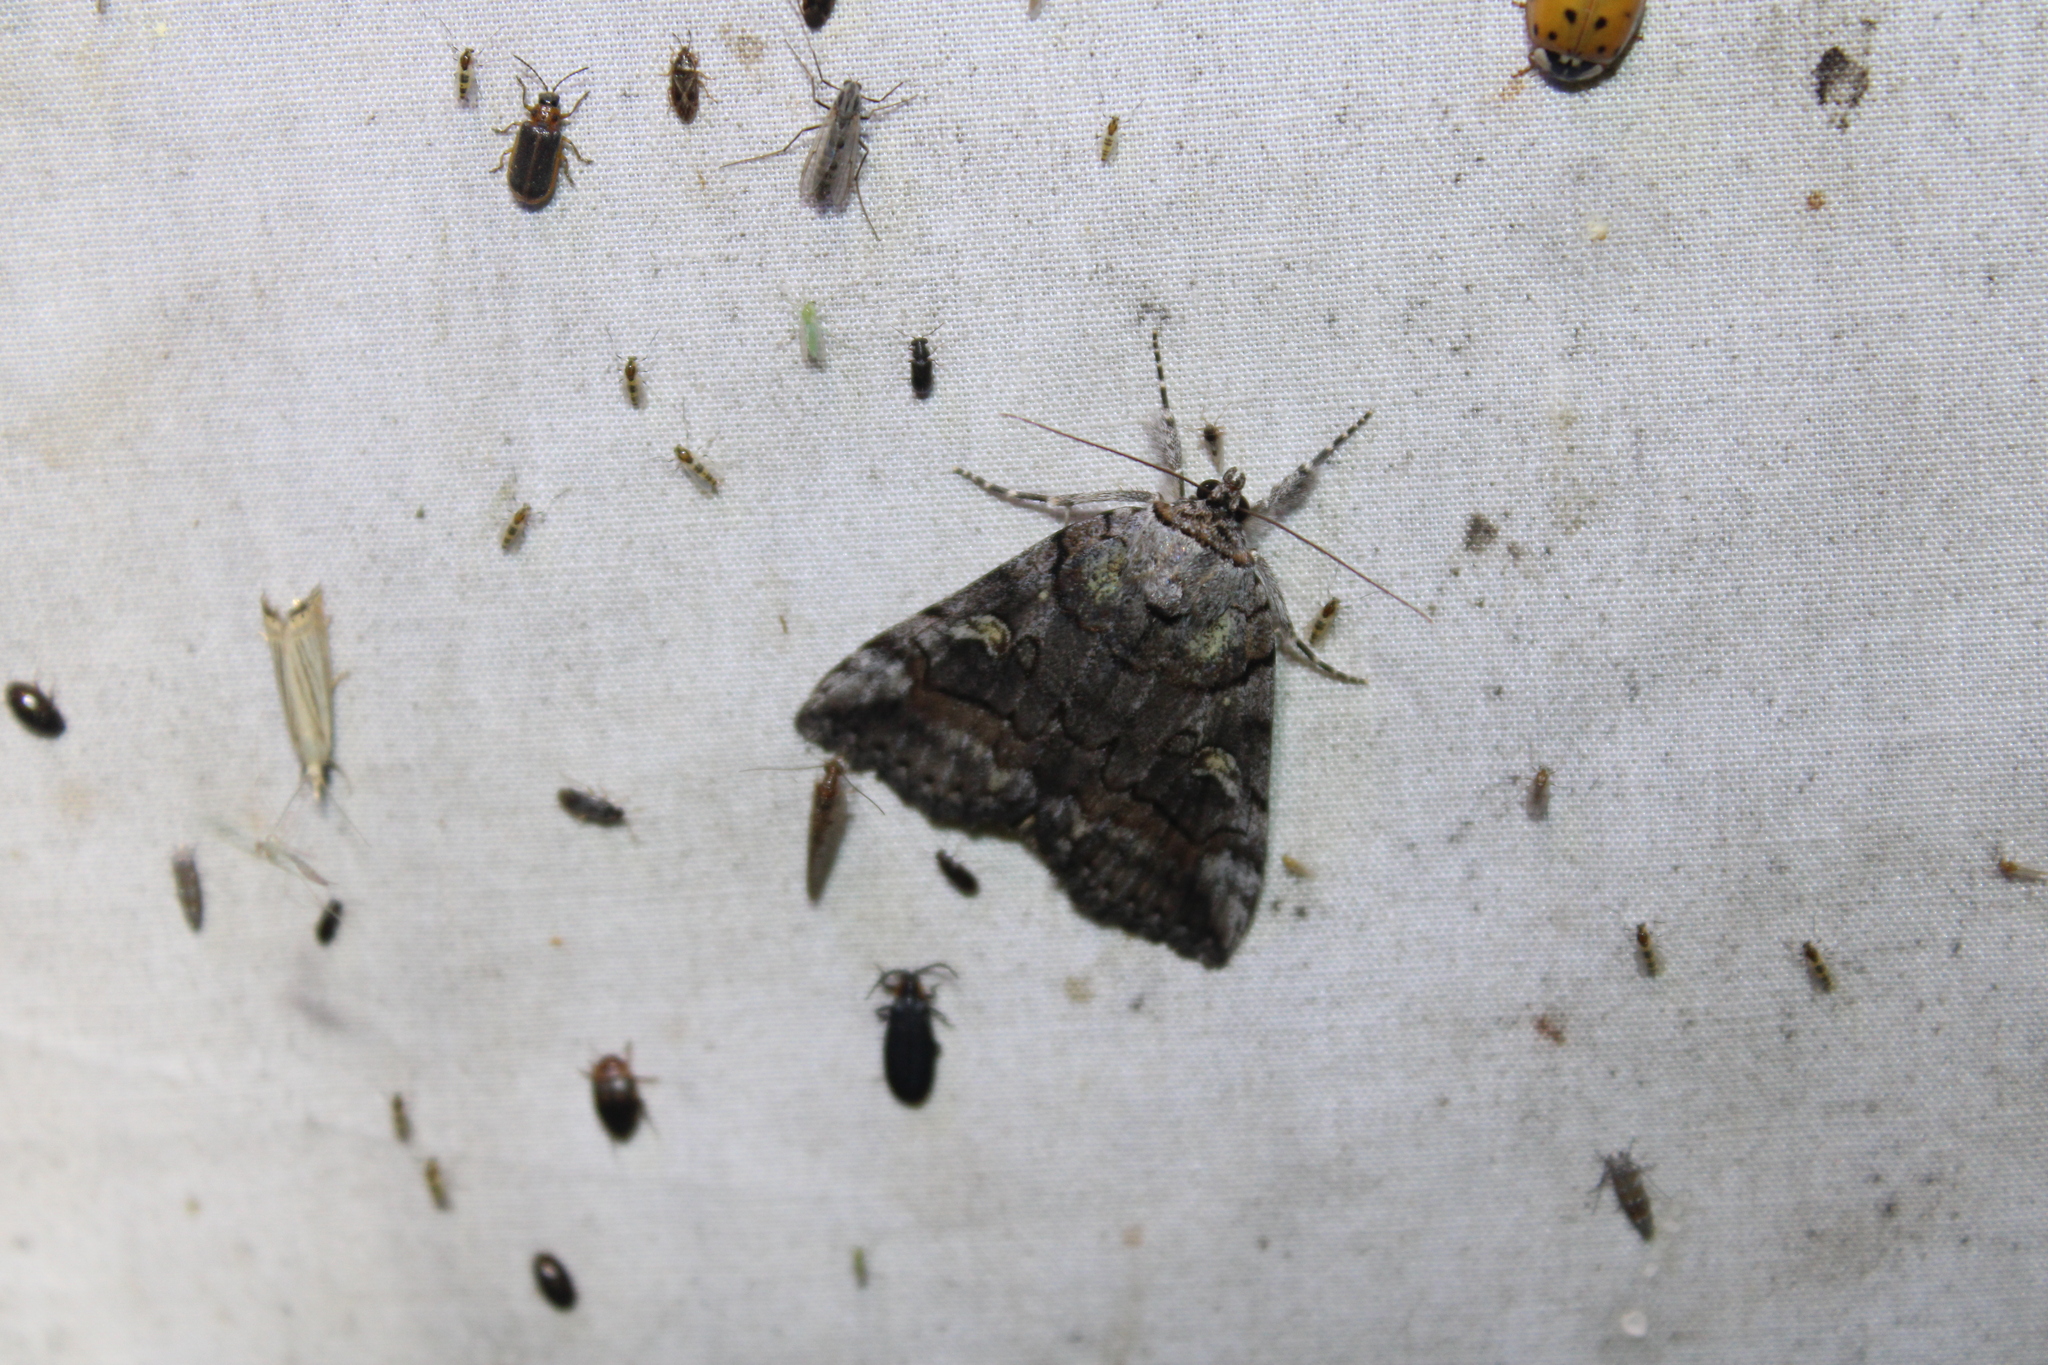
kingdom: Animalia
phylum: Arthropoda
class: Insecta
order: Lepidoptera
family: Erebidae
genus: Catocala
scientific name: Catocala similis
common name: Similar underwing
